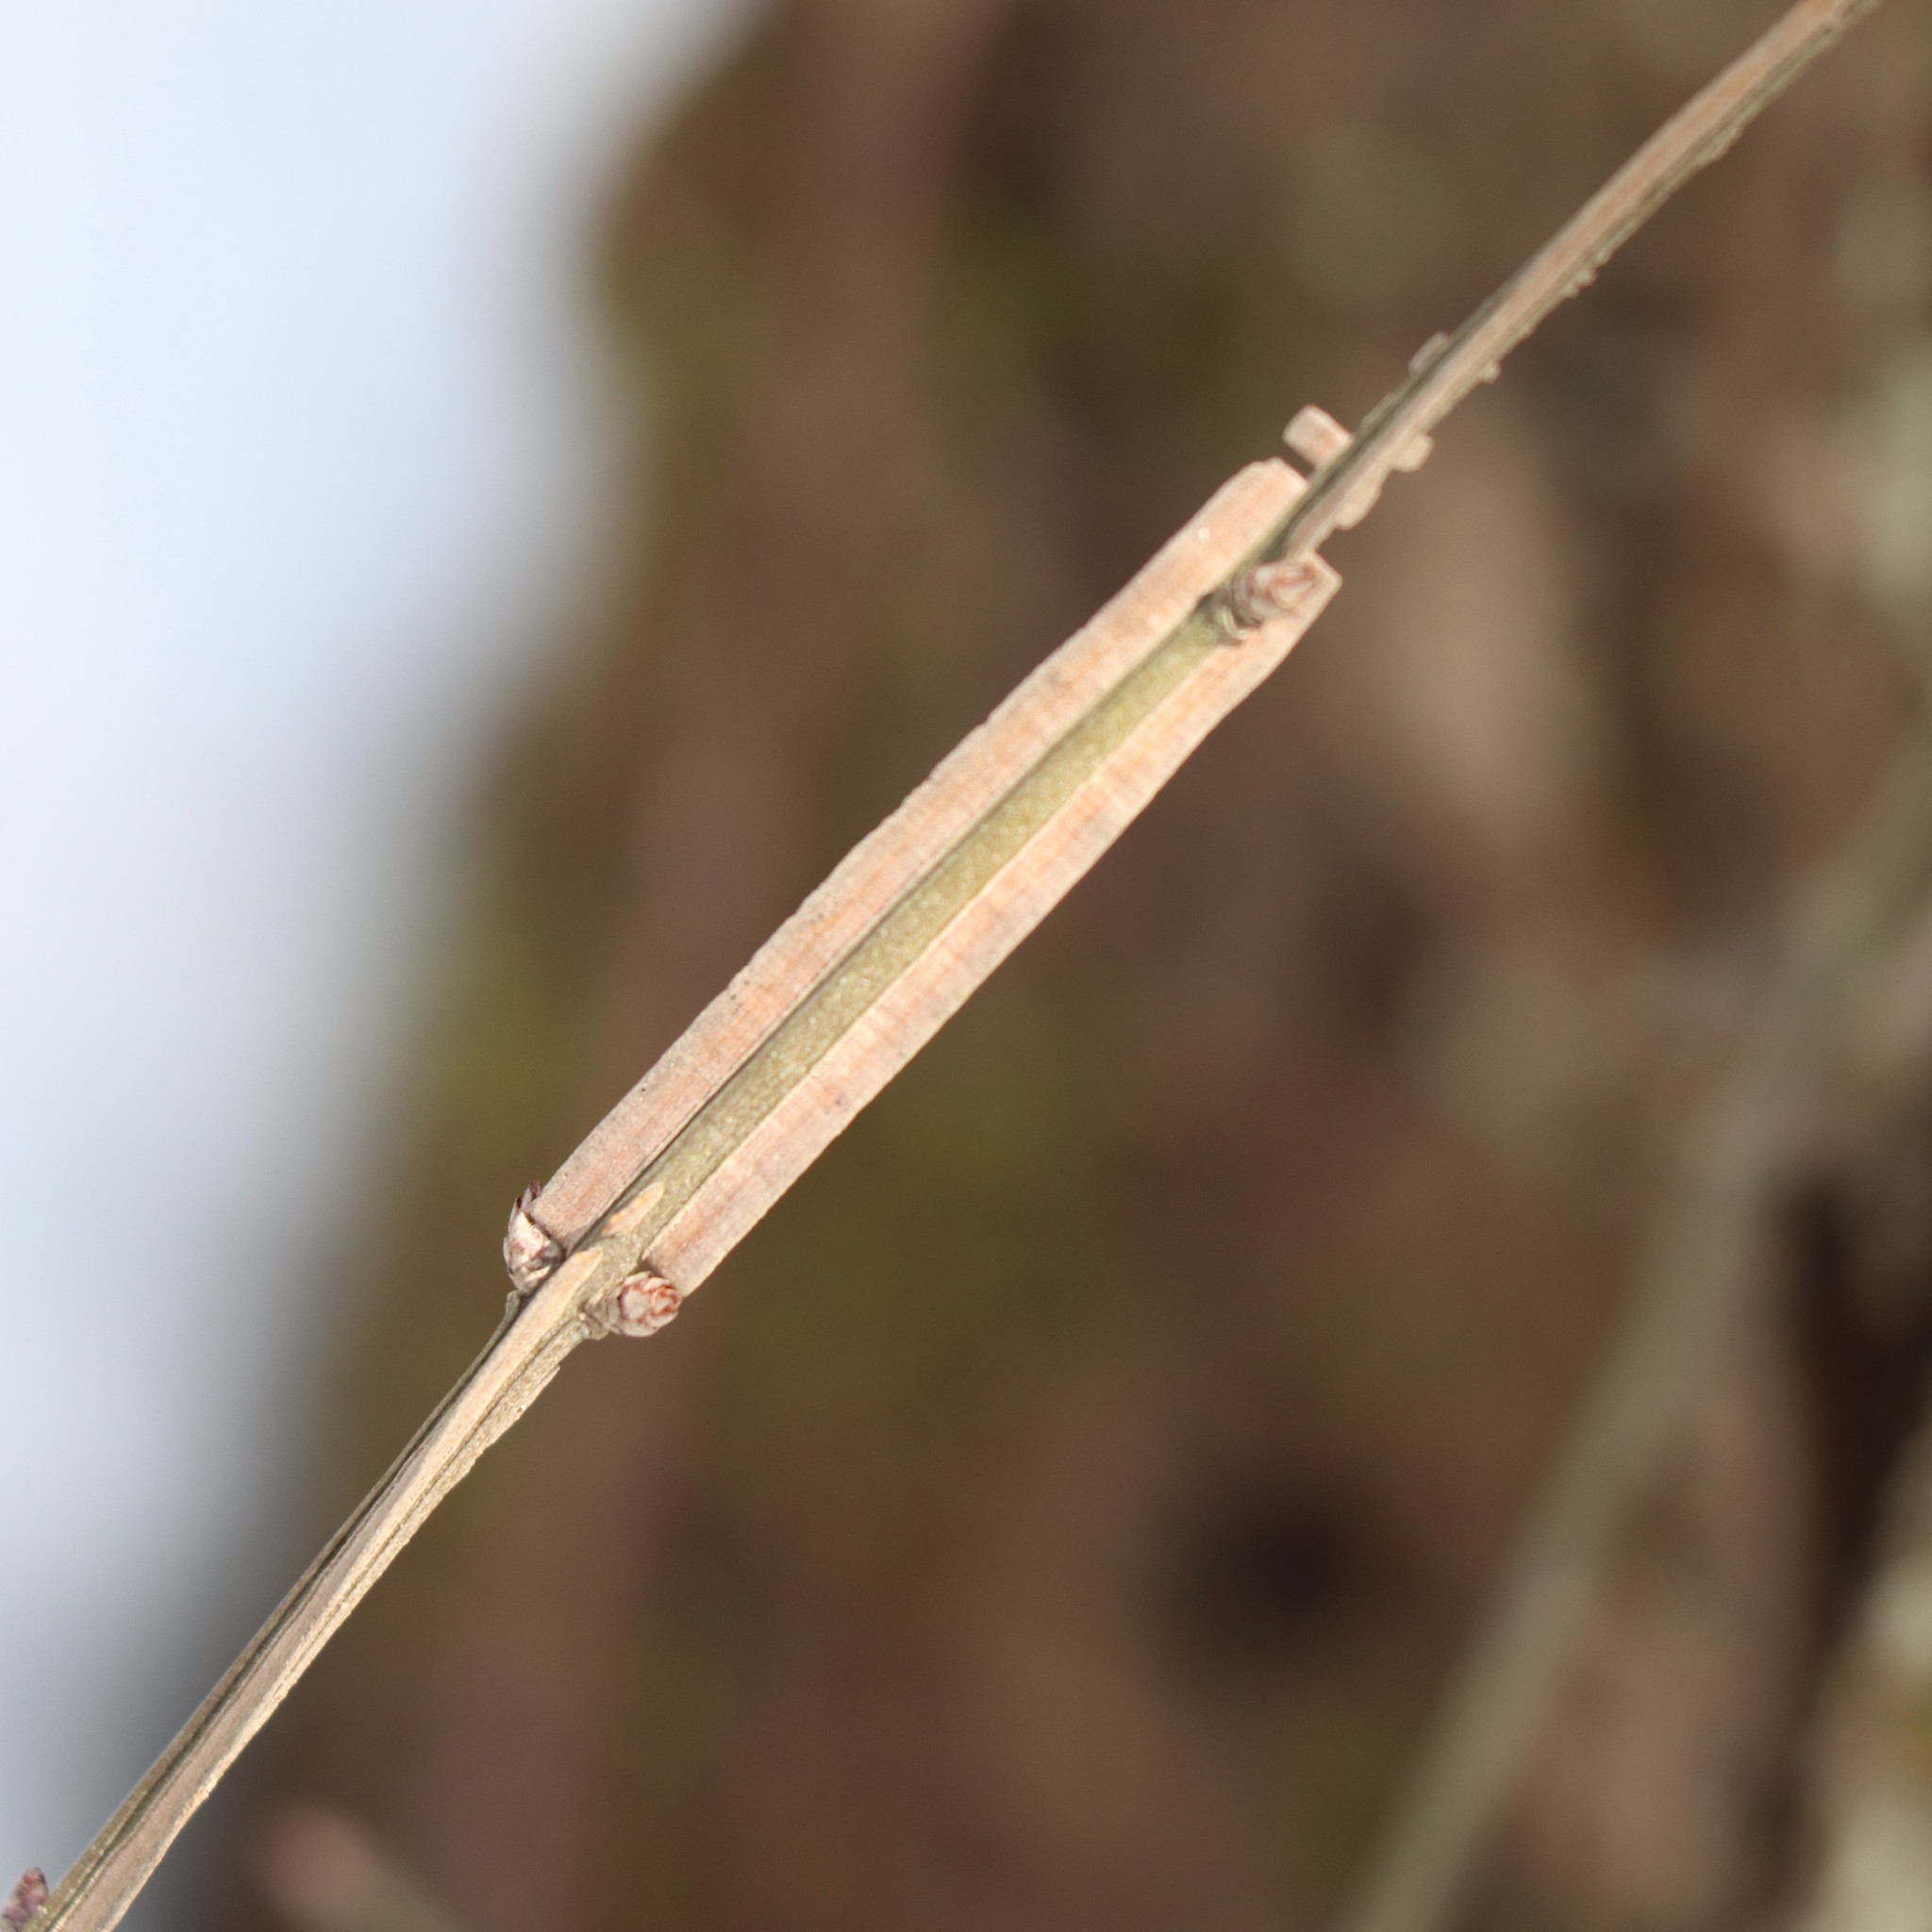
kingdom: Plantae
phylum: Tracheophyta
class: Magnoliopsida
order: Celastrales
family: Celastraceae
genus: Euonymus
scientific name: Euonymus alatus
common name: Winged euonymus
